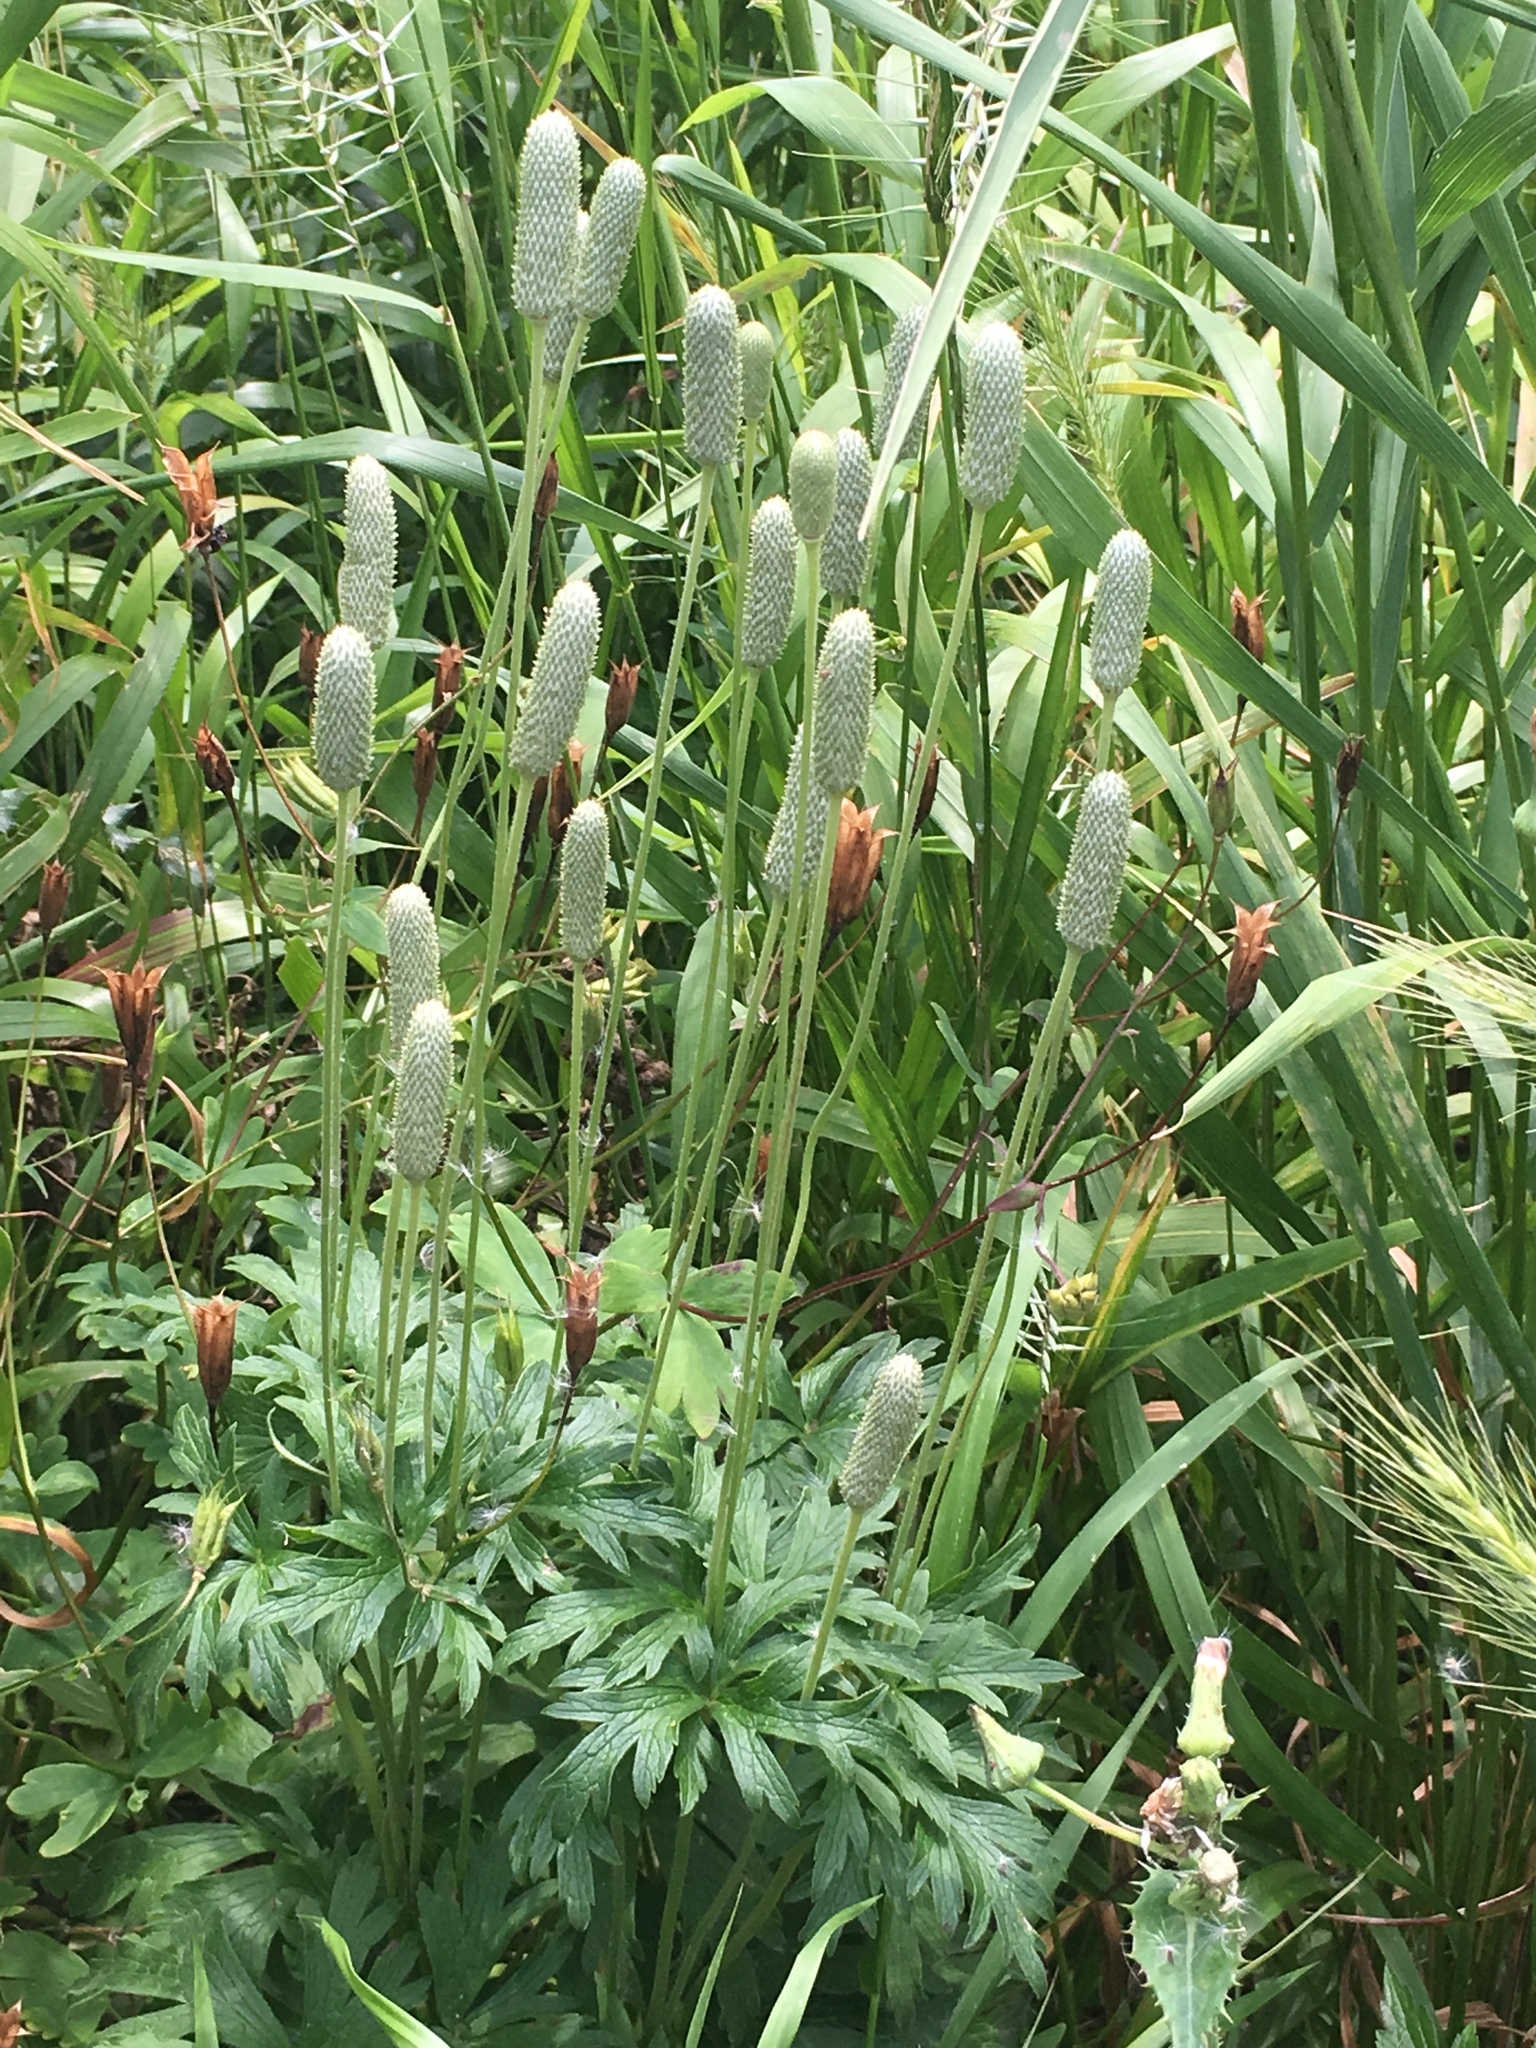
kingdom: Plantae
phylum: Tracheophyta
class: Magnoliopsida
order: Ranunculales
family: Ranunculaceae
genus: Anemone
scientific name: Anemone cylindrica
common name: Candle anemone
